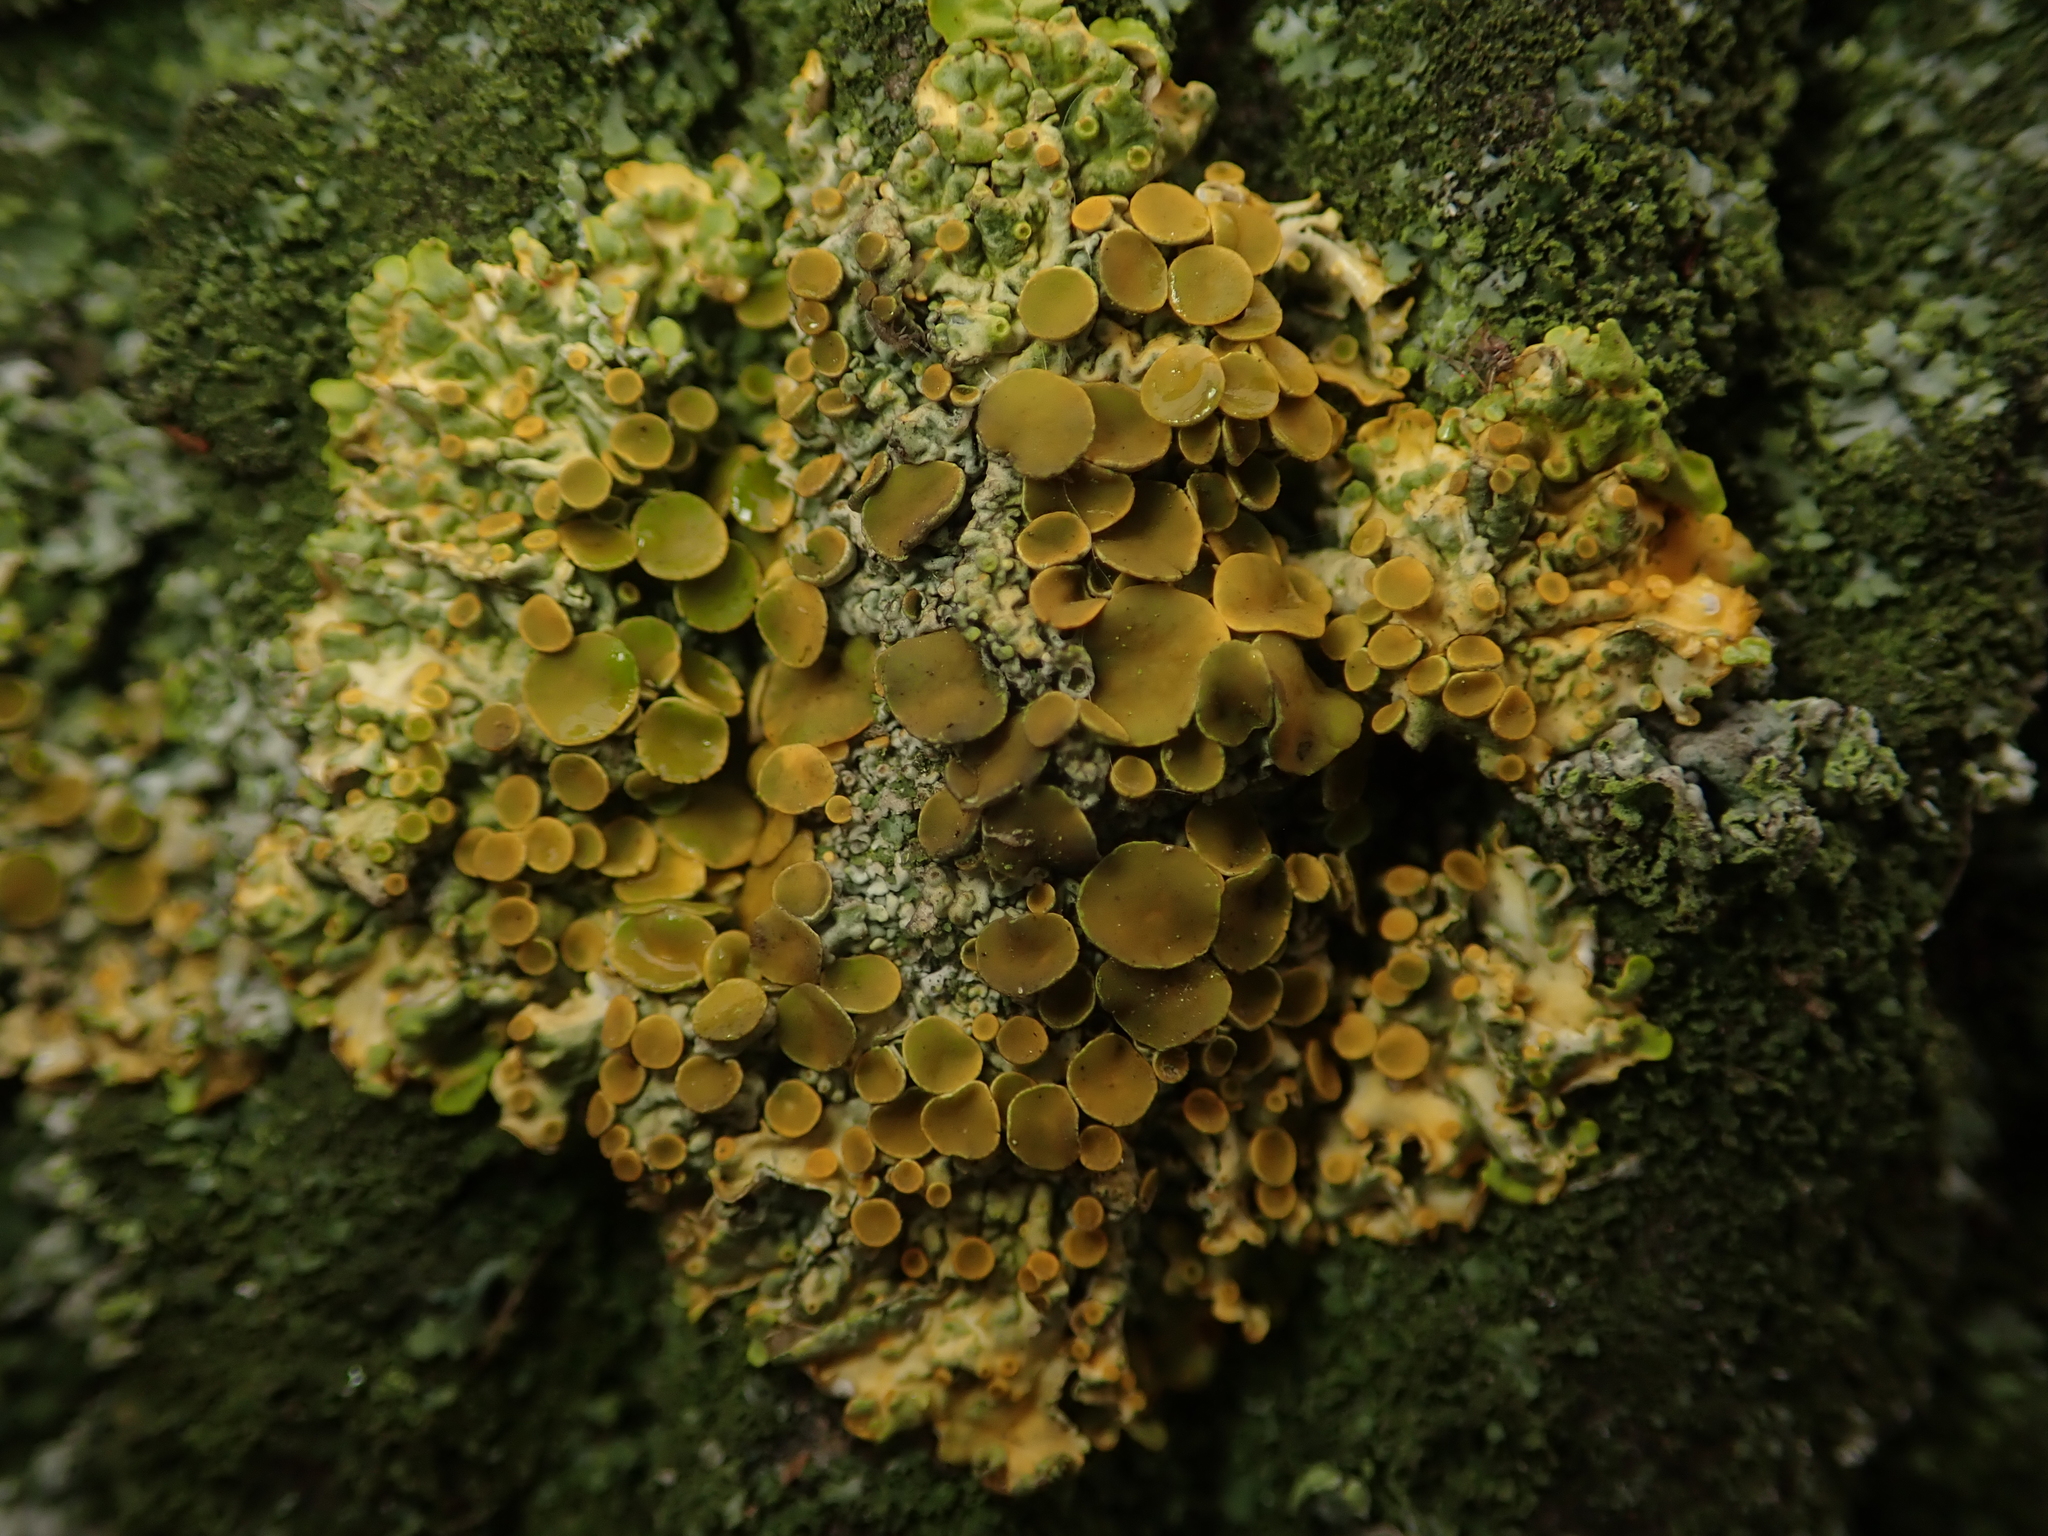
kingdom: Fungi
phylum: Ascomycota
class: Lecanoromycetes
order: Teloschistales
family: Teloschistaceae
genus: Xanthoria
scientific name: Xanthoria parietina
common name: Common orange lichen
